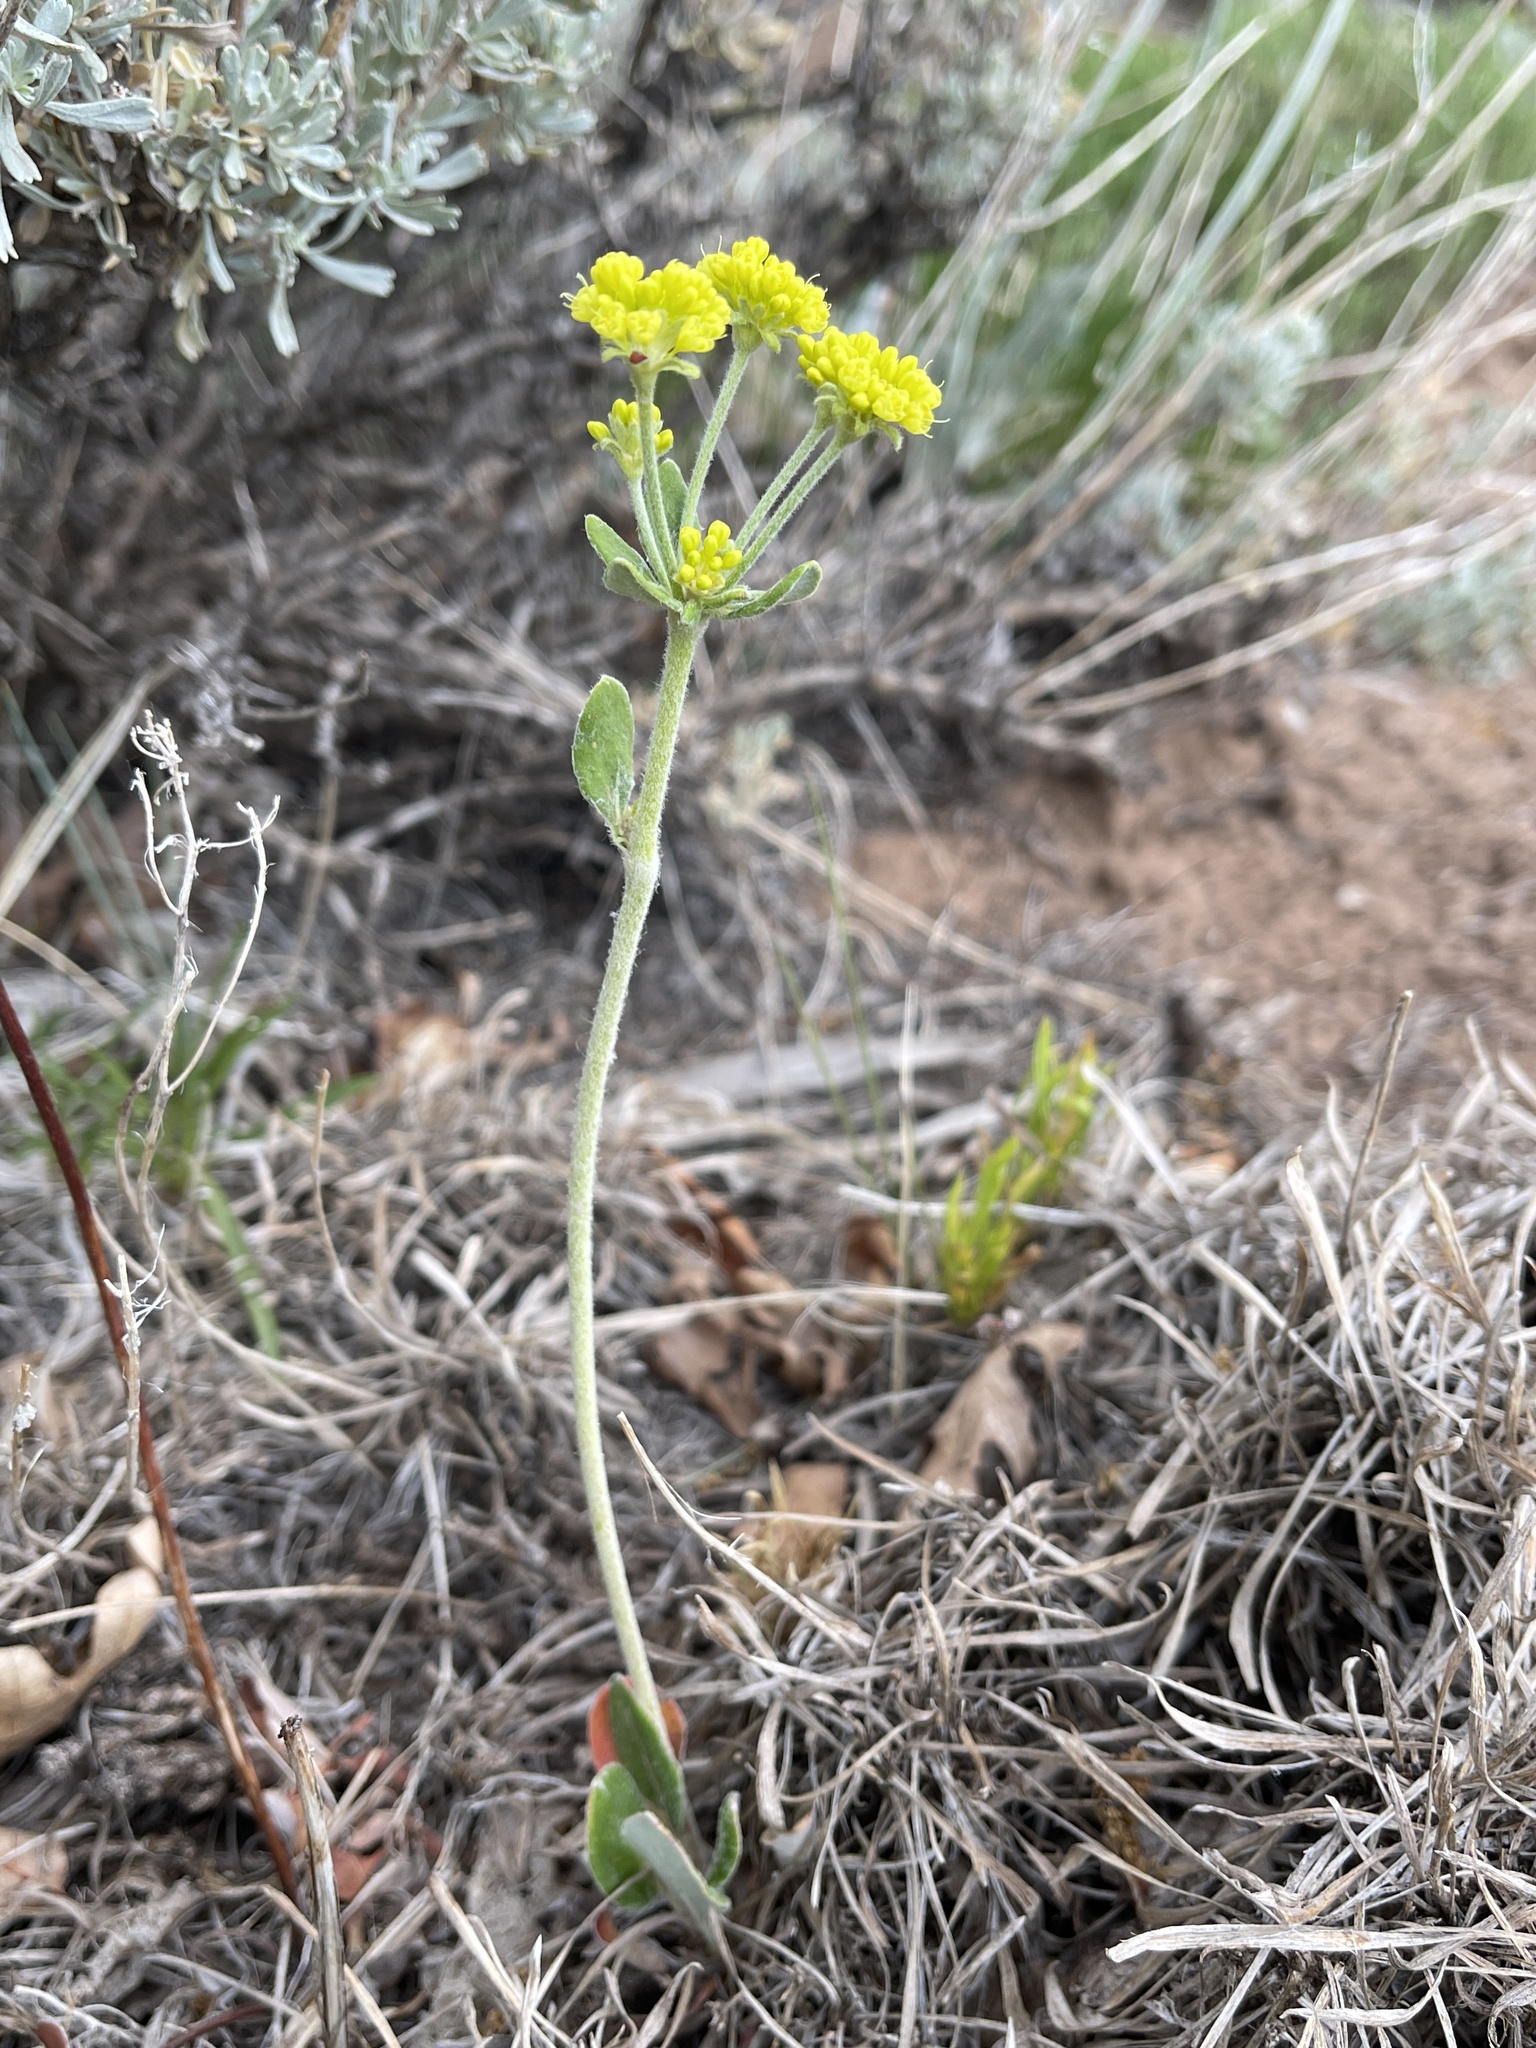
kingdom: Plantae
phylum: Tracheophyta
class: Magnoliopsida
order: Caryophyllales
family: Polygonaceae
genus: Eriogonum
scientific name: Eriogonum umbellatum
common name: Sulfur-buckwheat
